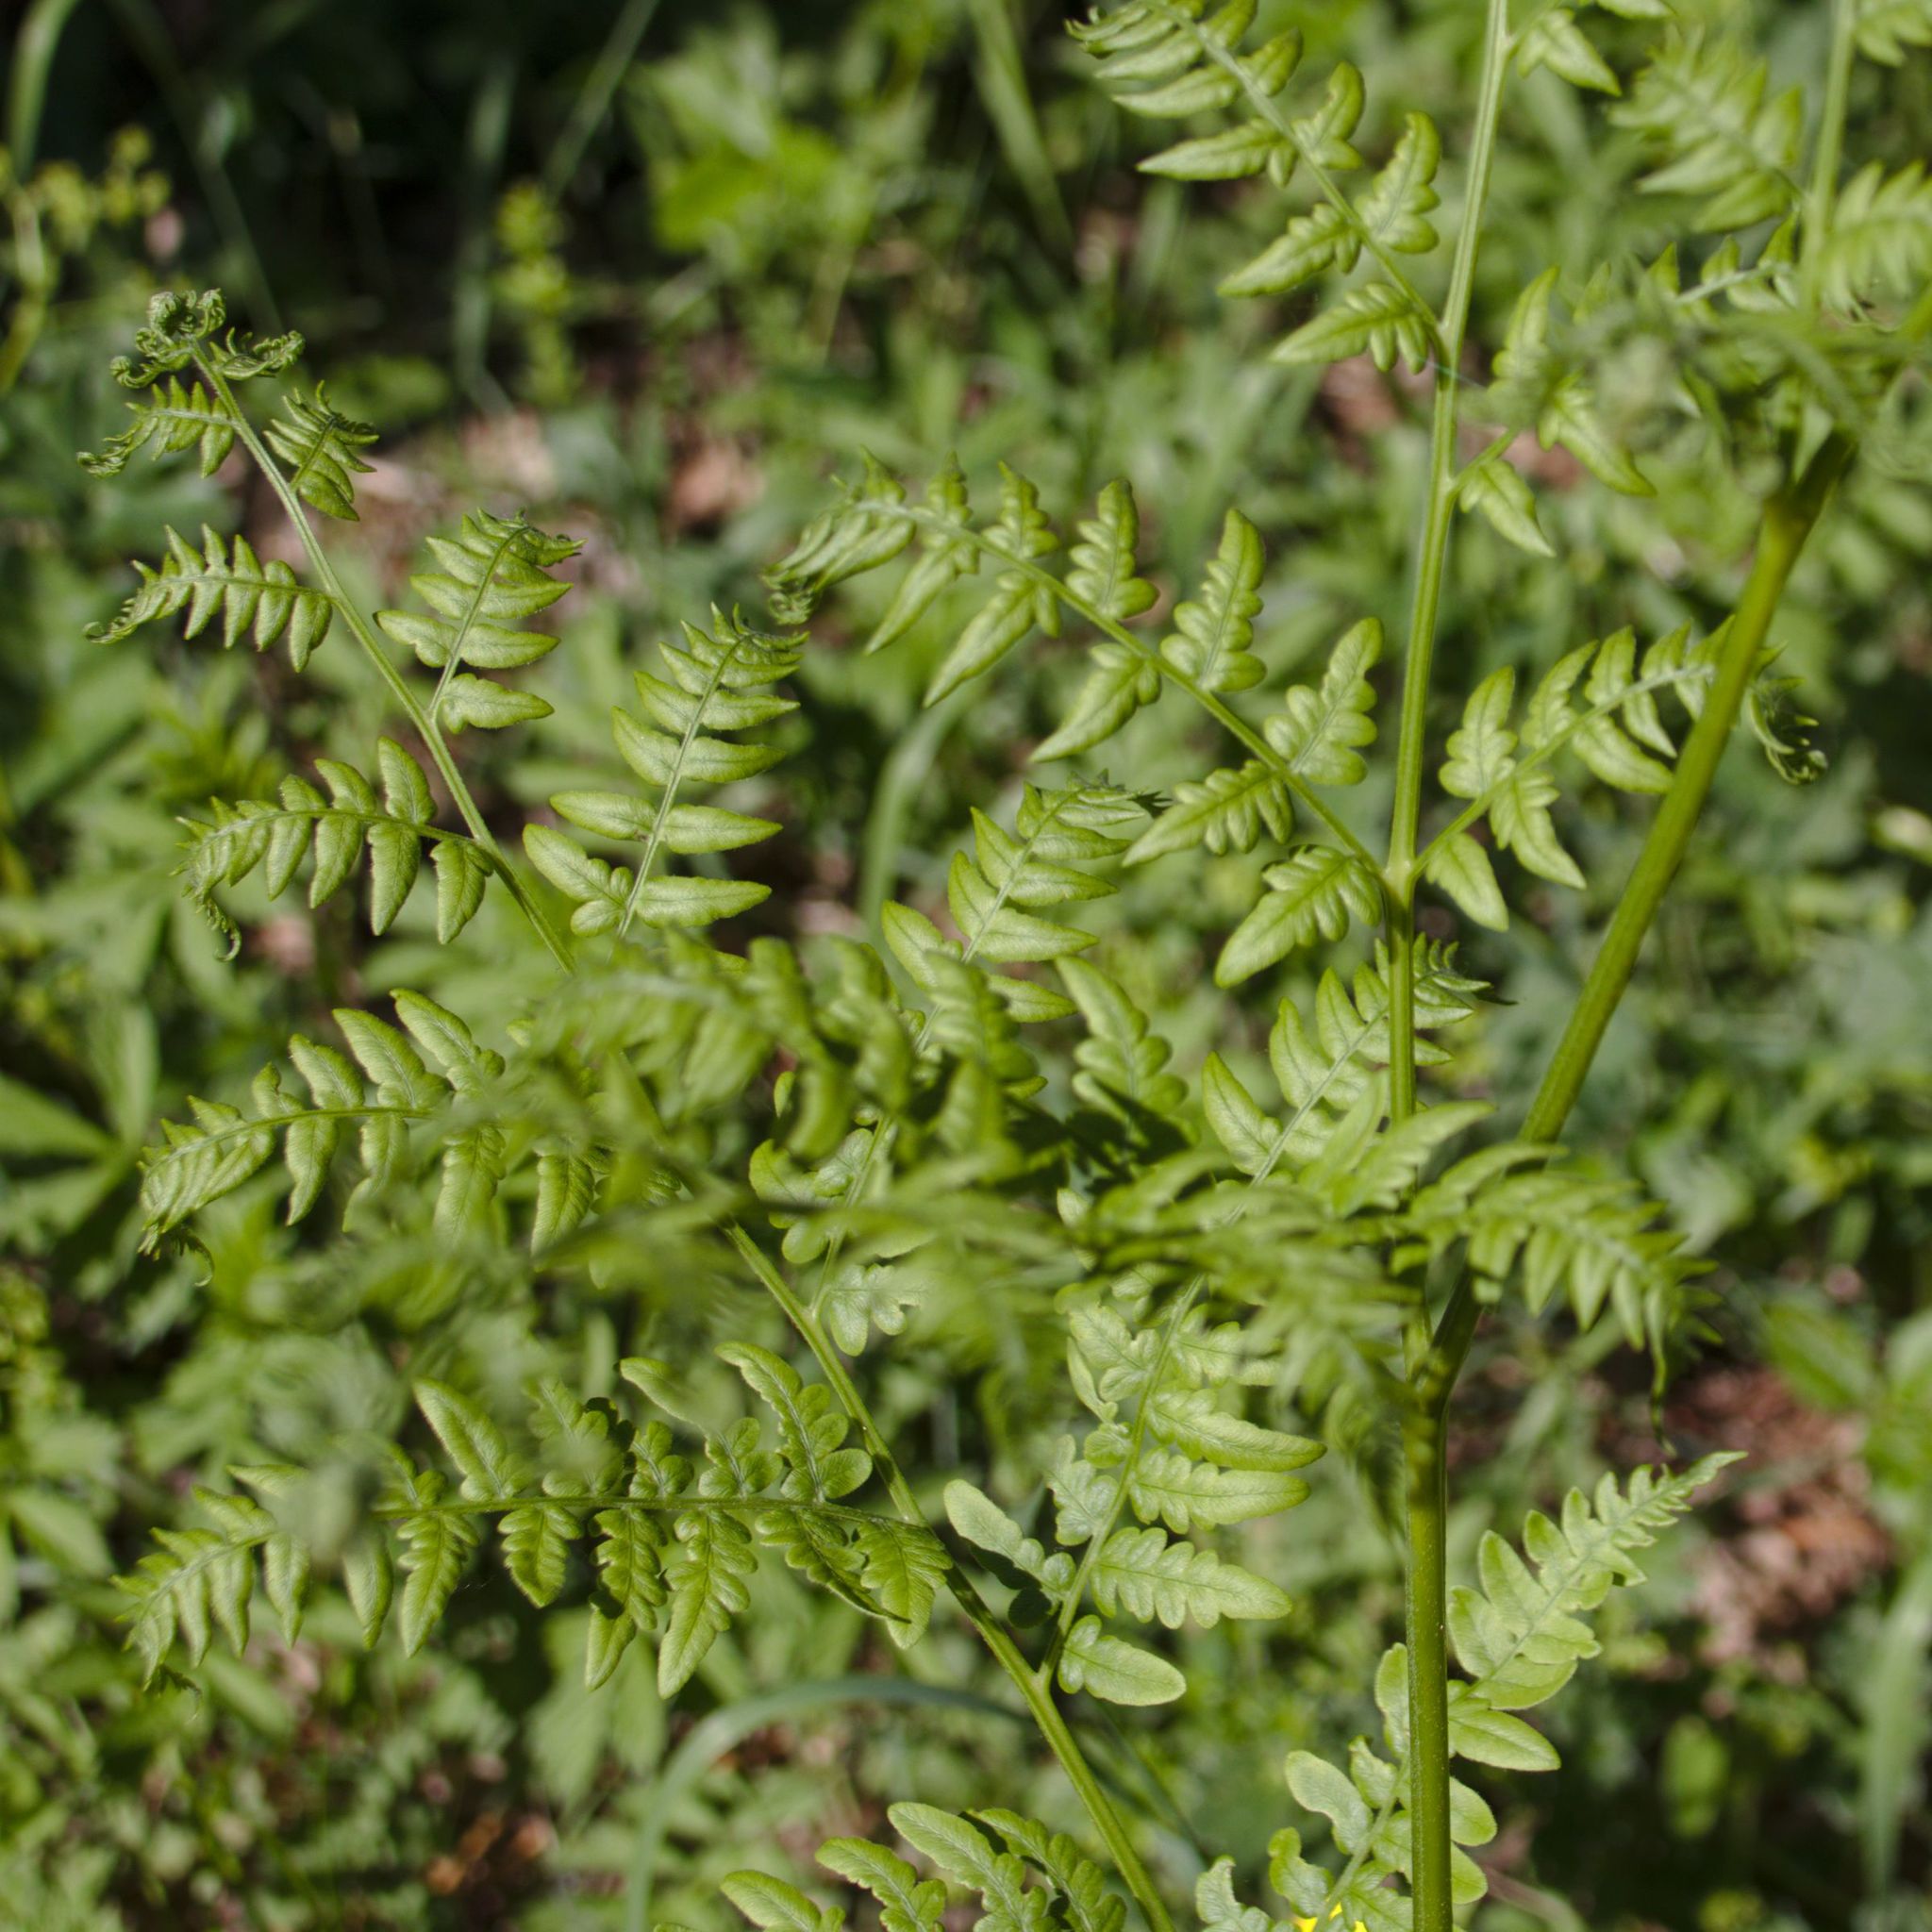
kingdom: Plantae
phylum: Tracheophyta
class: Polypodiopsida
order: Polypodiales
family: Dennstaedtiaceae
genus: Pteridium
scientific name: Pteridium aquilinum
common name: Bracken
